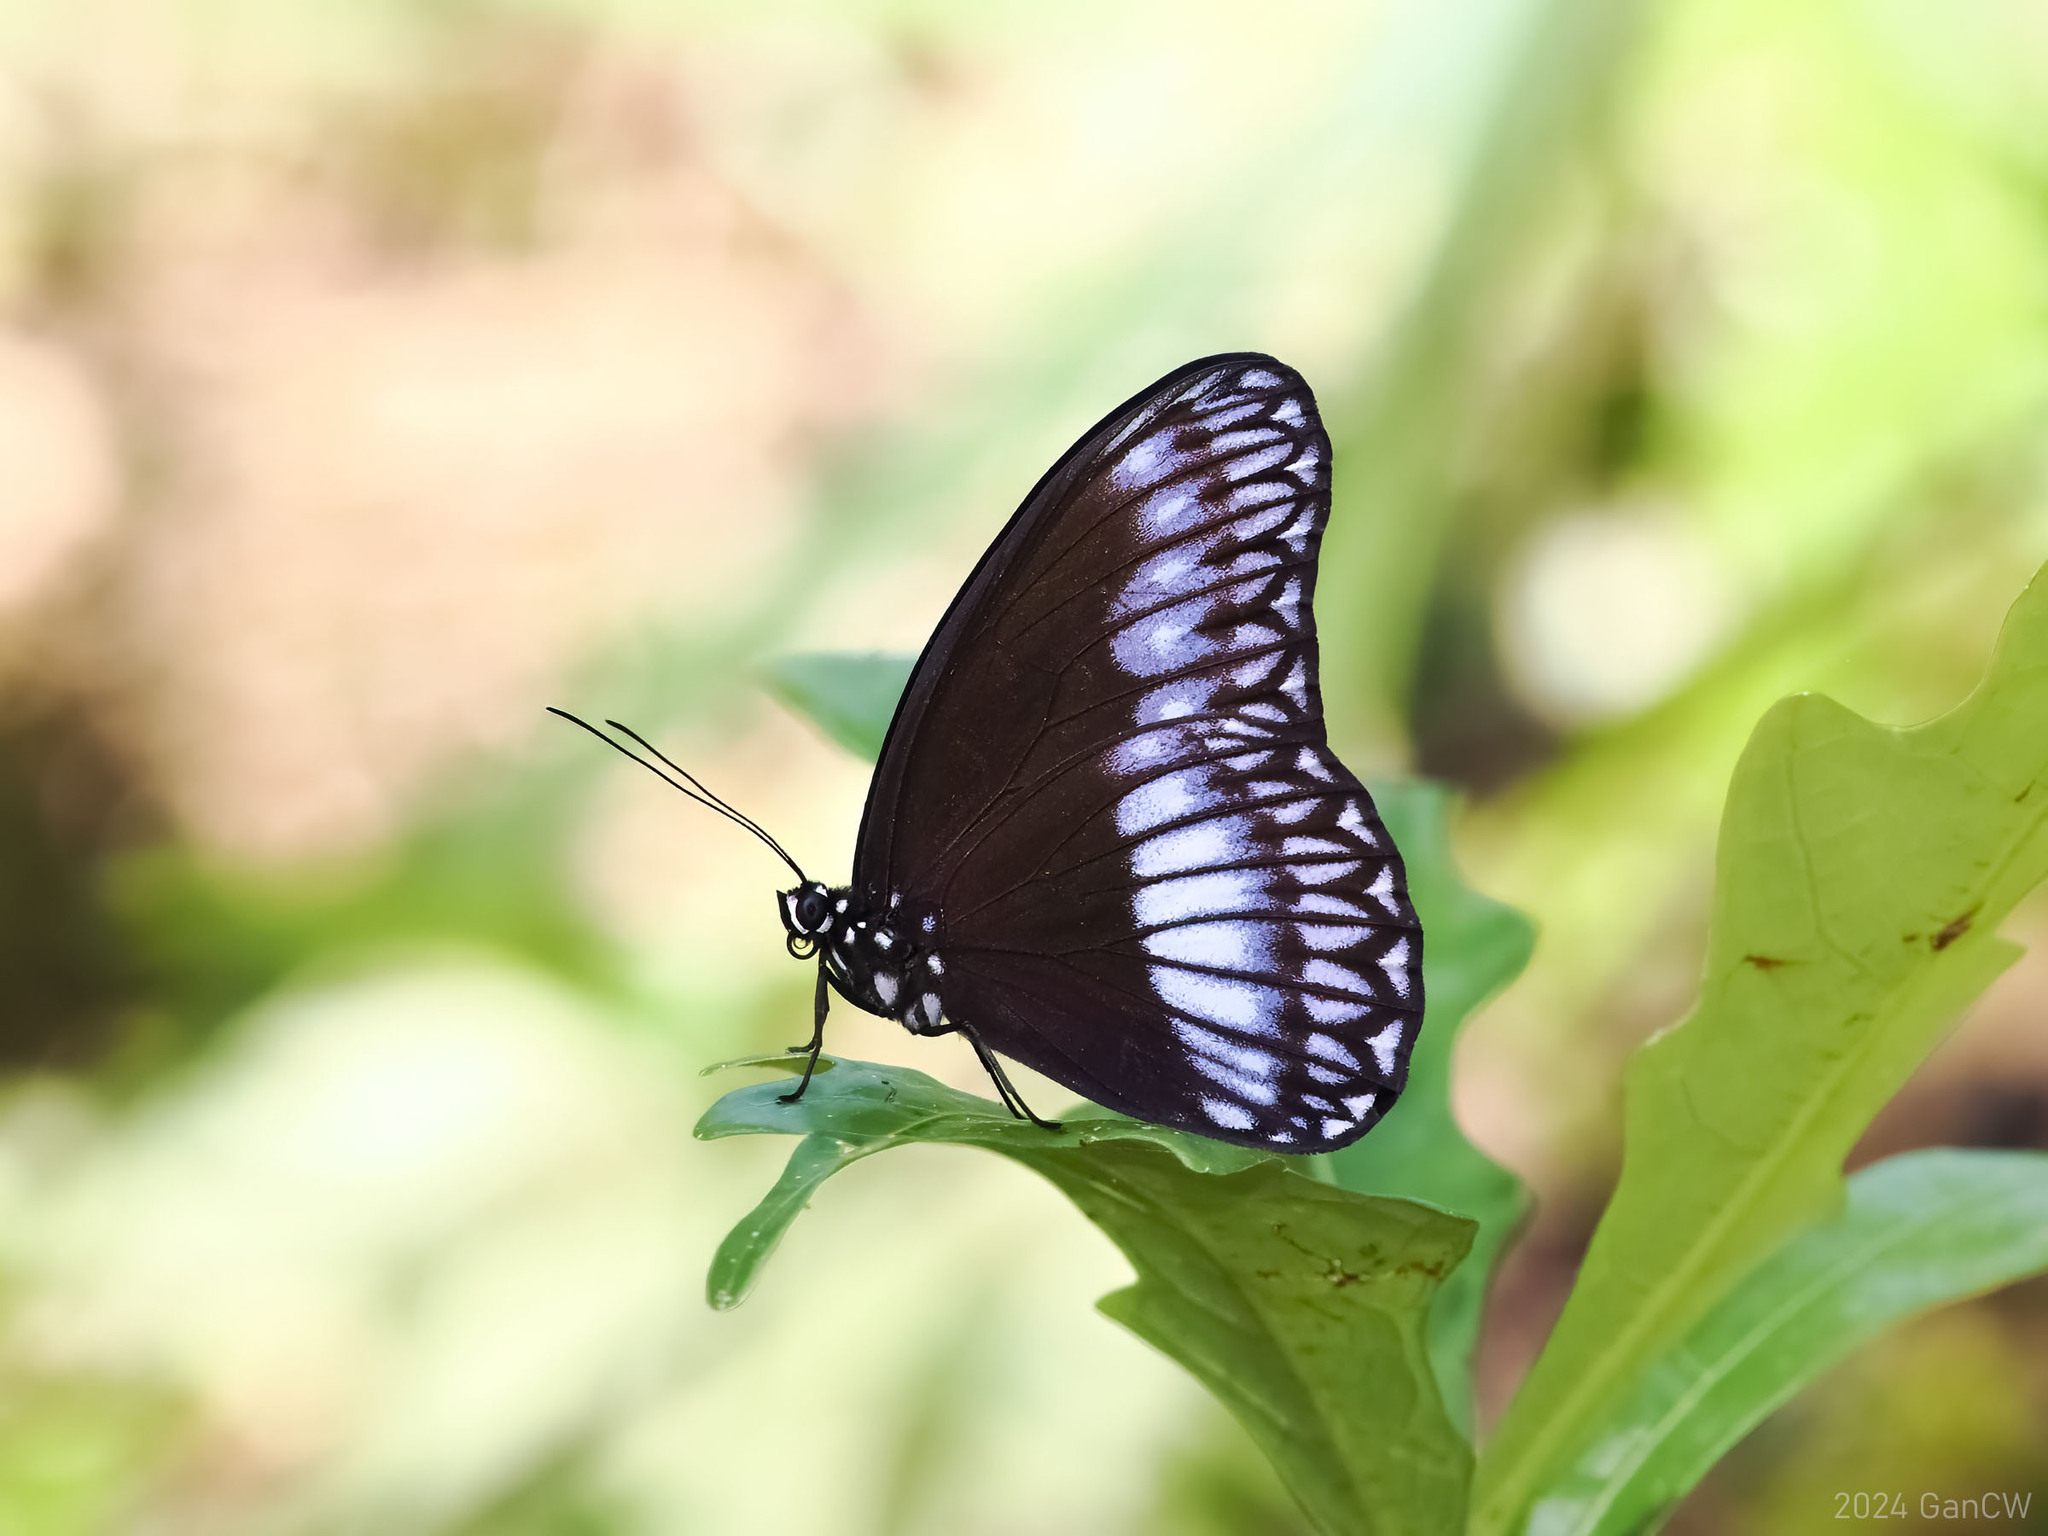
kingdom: Animalia
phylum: Arthropoda
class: Insecta
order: Lepidoptera
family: Nymphalidae
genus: Zethera
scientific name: Zethera pimplea
